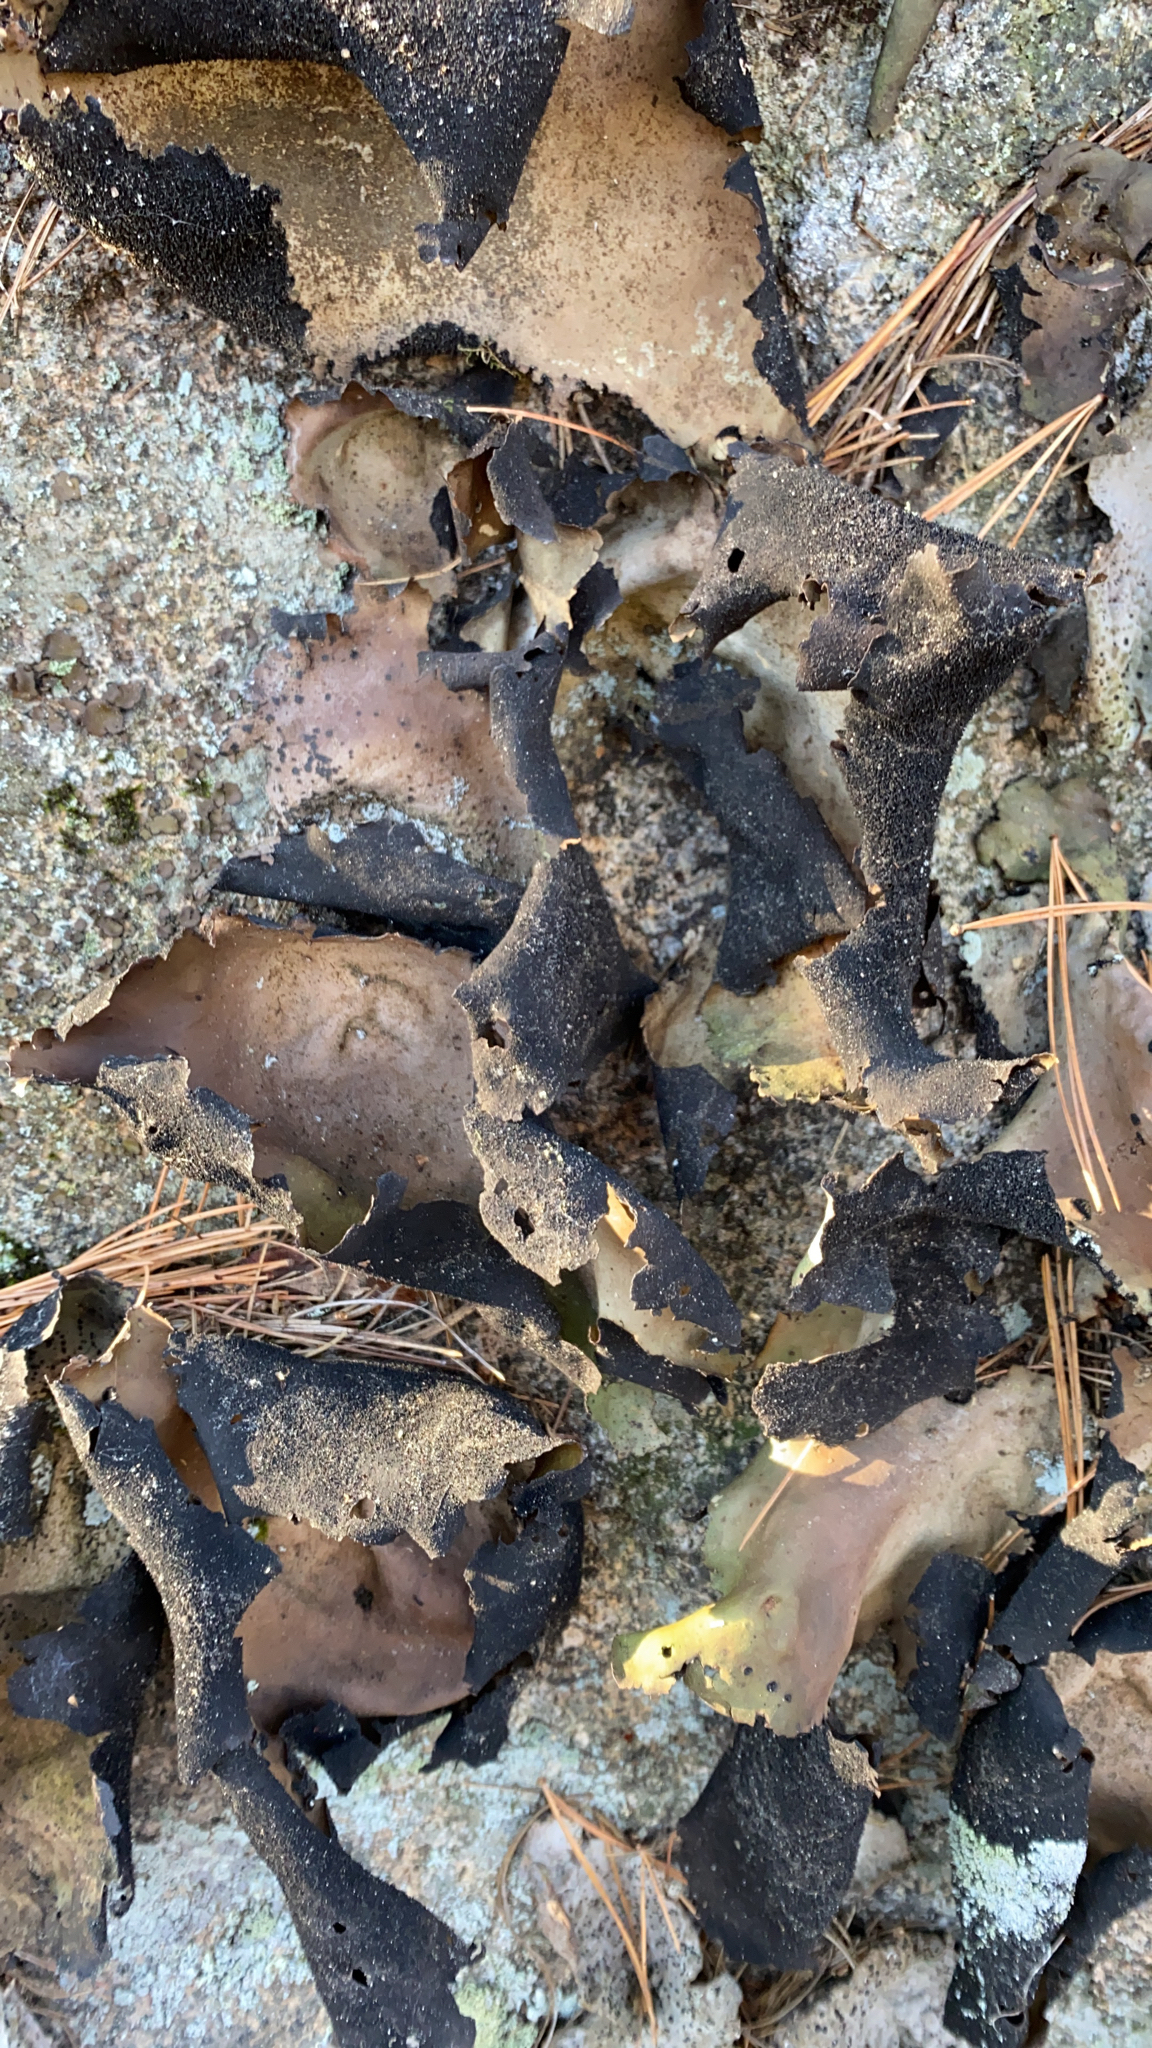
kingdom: Fungi
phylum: Ascomycota
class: Lecanoromycetes
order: Umbilicariales
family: Umbilicariaceae
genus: Umbilicaria
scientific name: Umbilicaria mammulata
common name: Smooth rock tripe
